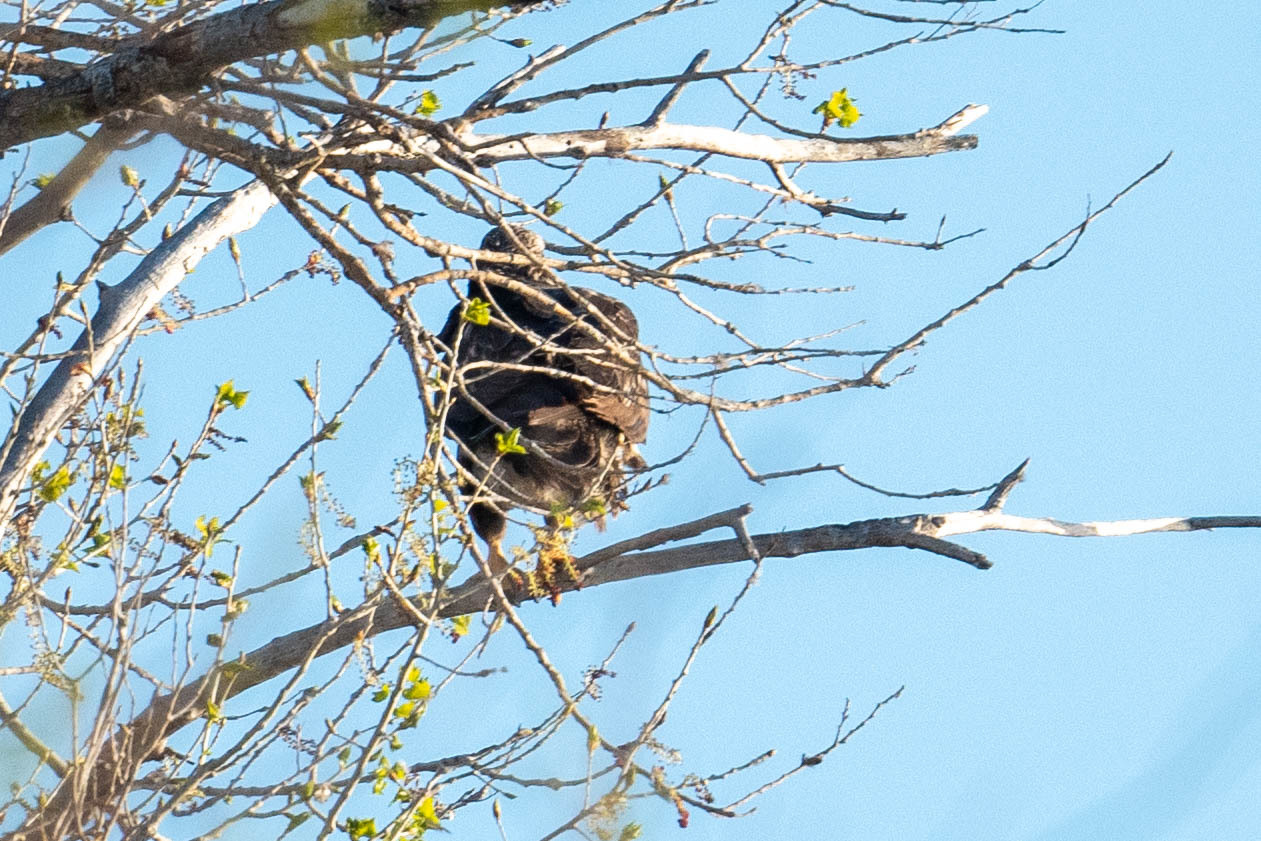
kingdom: Animalia
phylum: Chordata
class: Aves
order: Accipitriformes
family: Accipitridae
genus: Haliaeetus
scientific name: Haliaeetus leucocephalus
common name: Bald eagle
